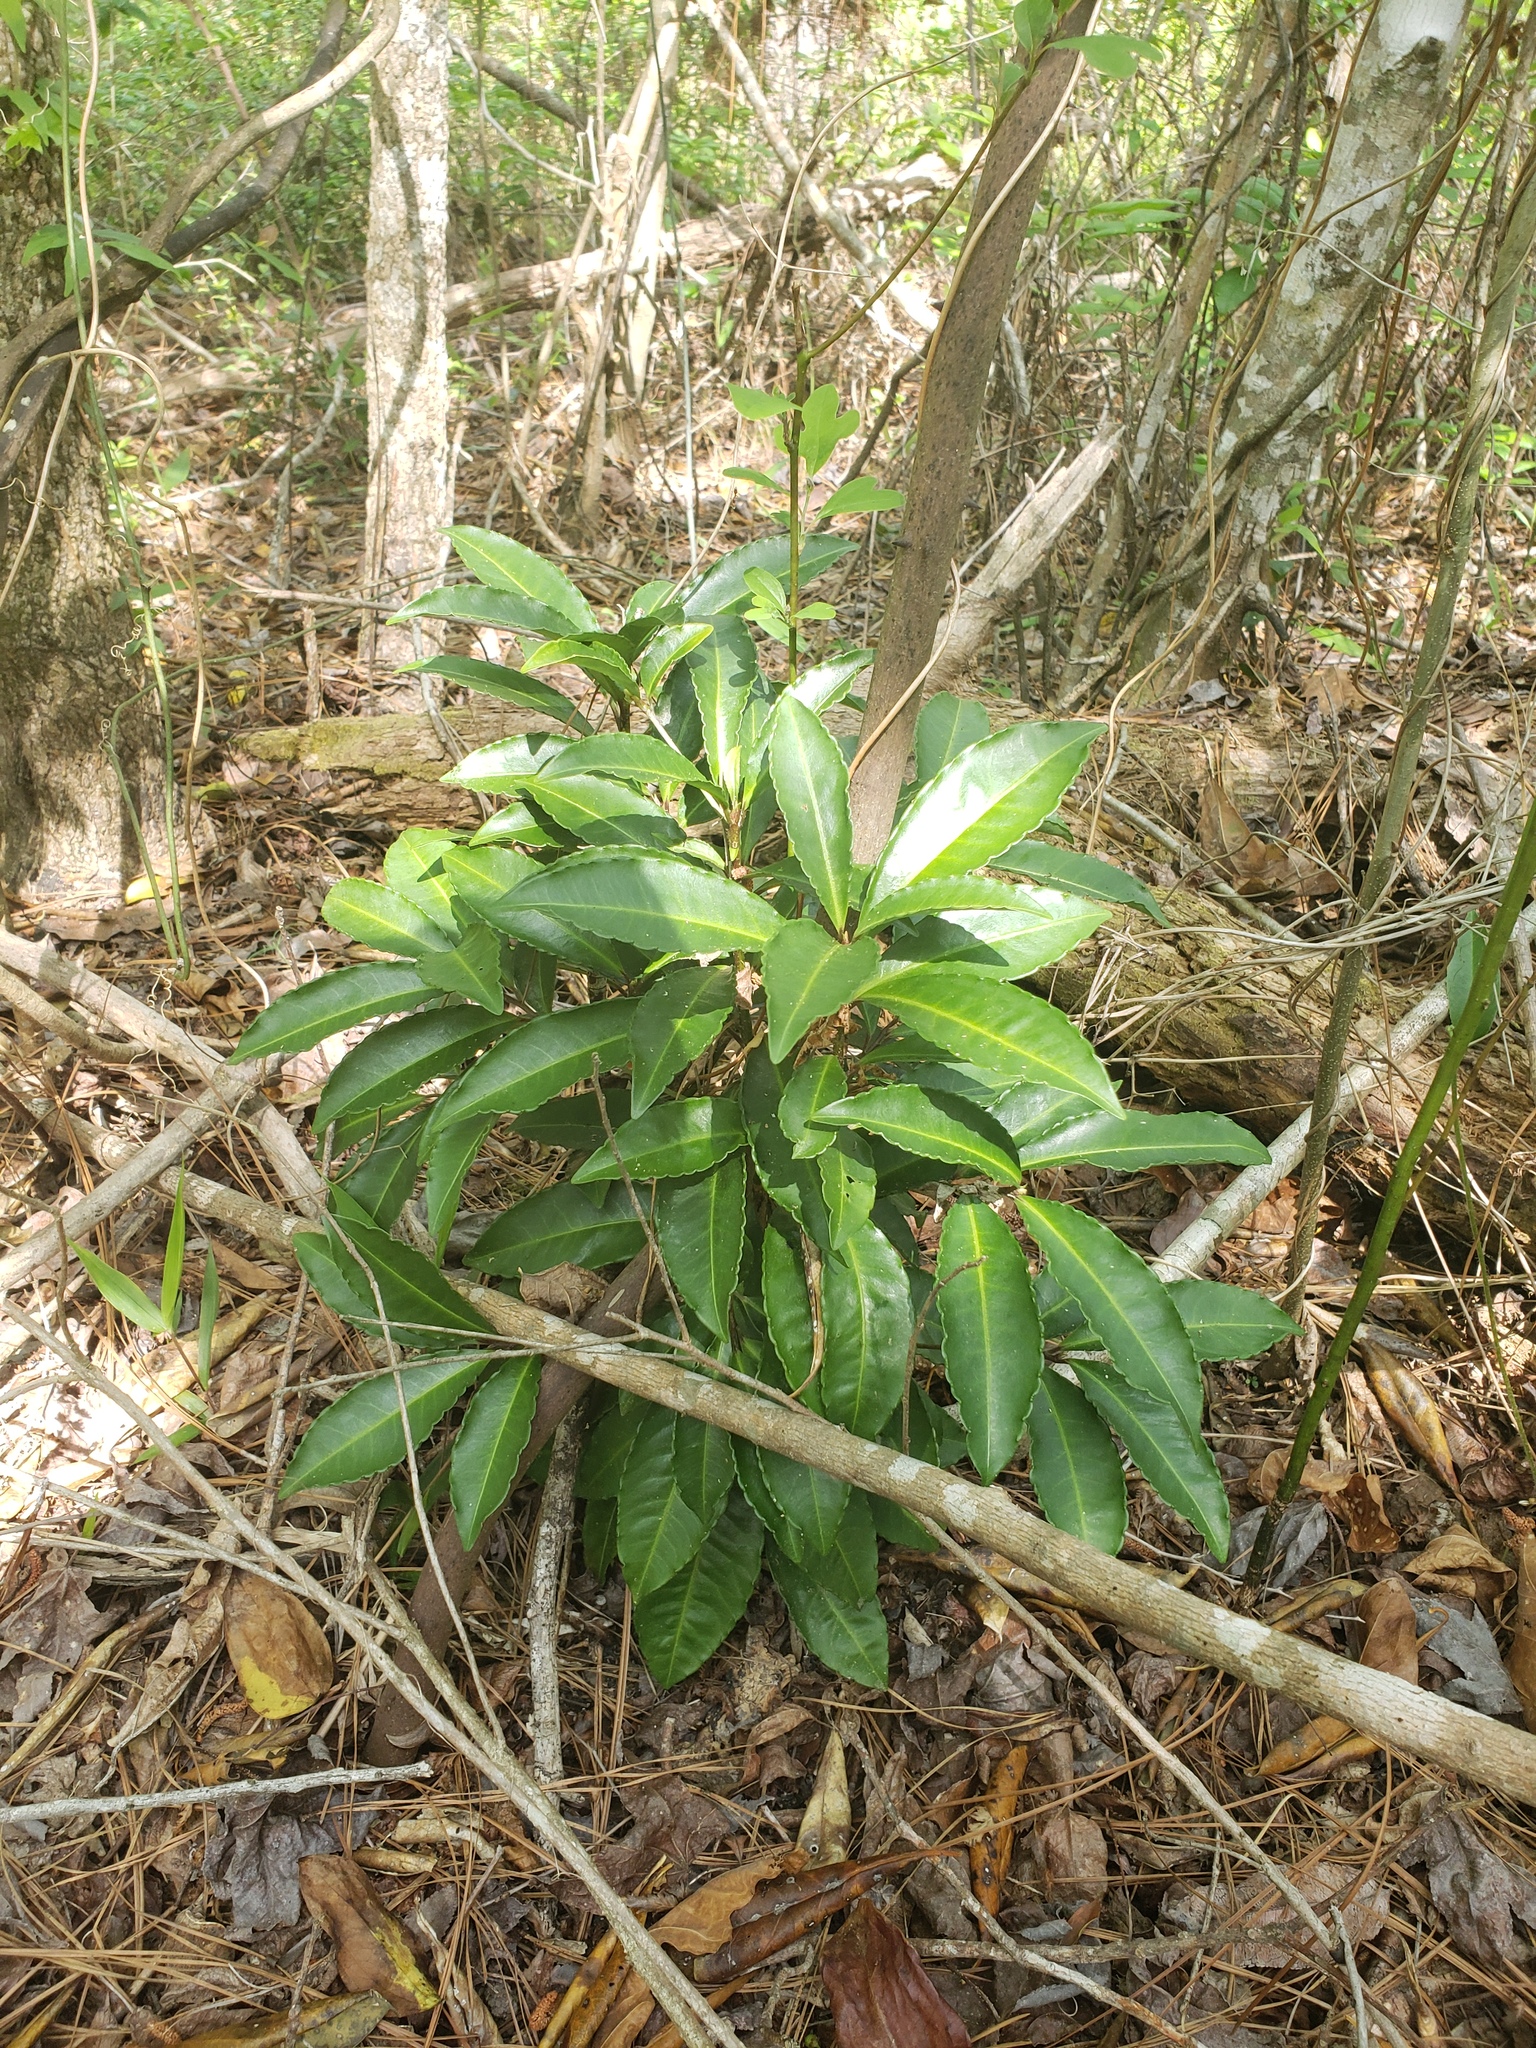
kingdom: Plantae
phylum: Tracheophyta
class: Magnoliopsida
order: Ericales
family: Primulaceae
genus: Ardisia
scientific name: Ardisia crenata
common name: Hen's eyes
